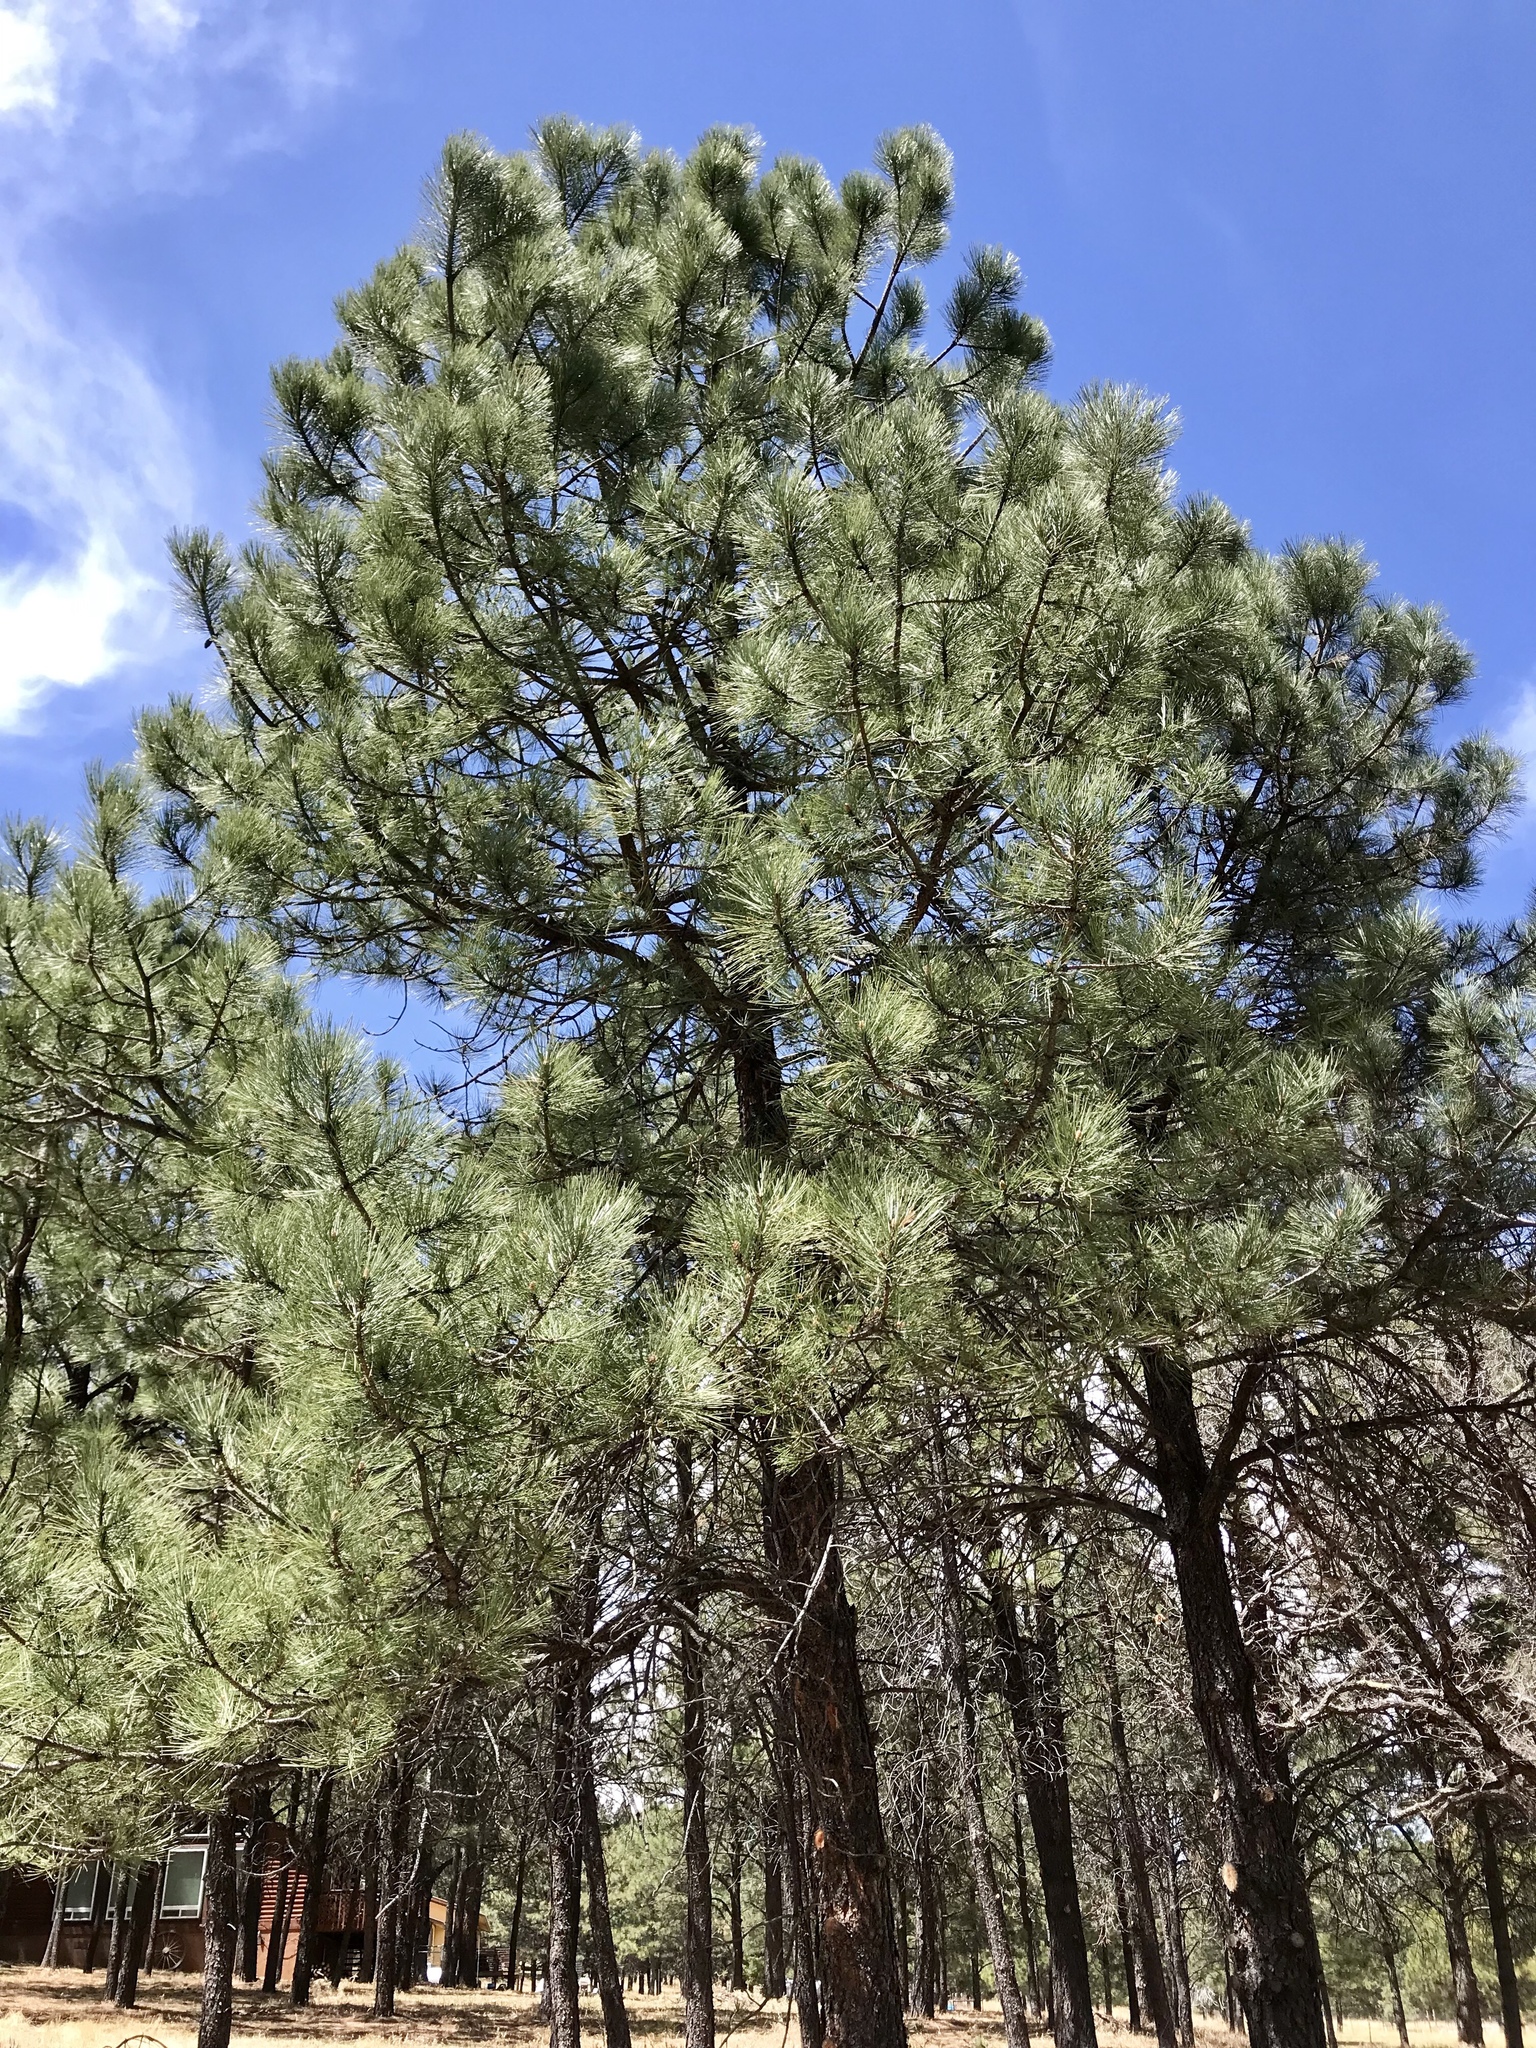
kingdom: Plantae
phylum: Tracheophyta
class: Pinopsida
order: Pinales
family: Pinaceae
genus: Pinus
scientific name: Pinus ponderosa
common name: Western yellow-pine
